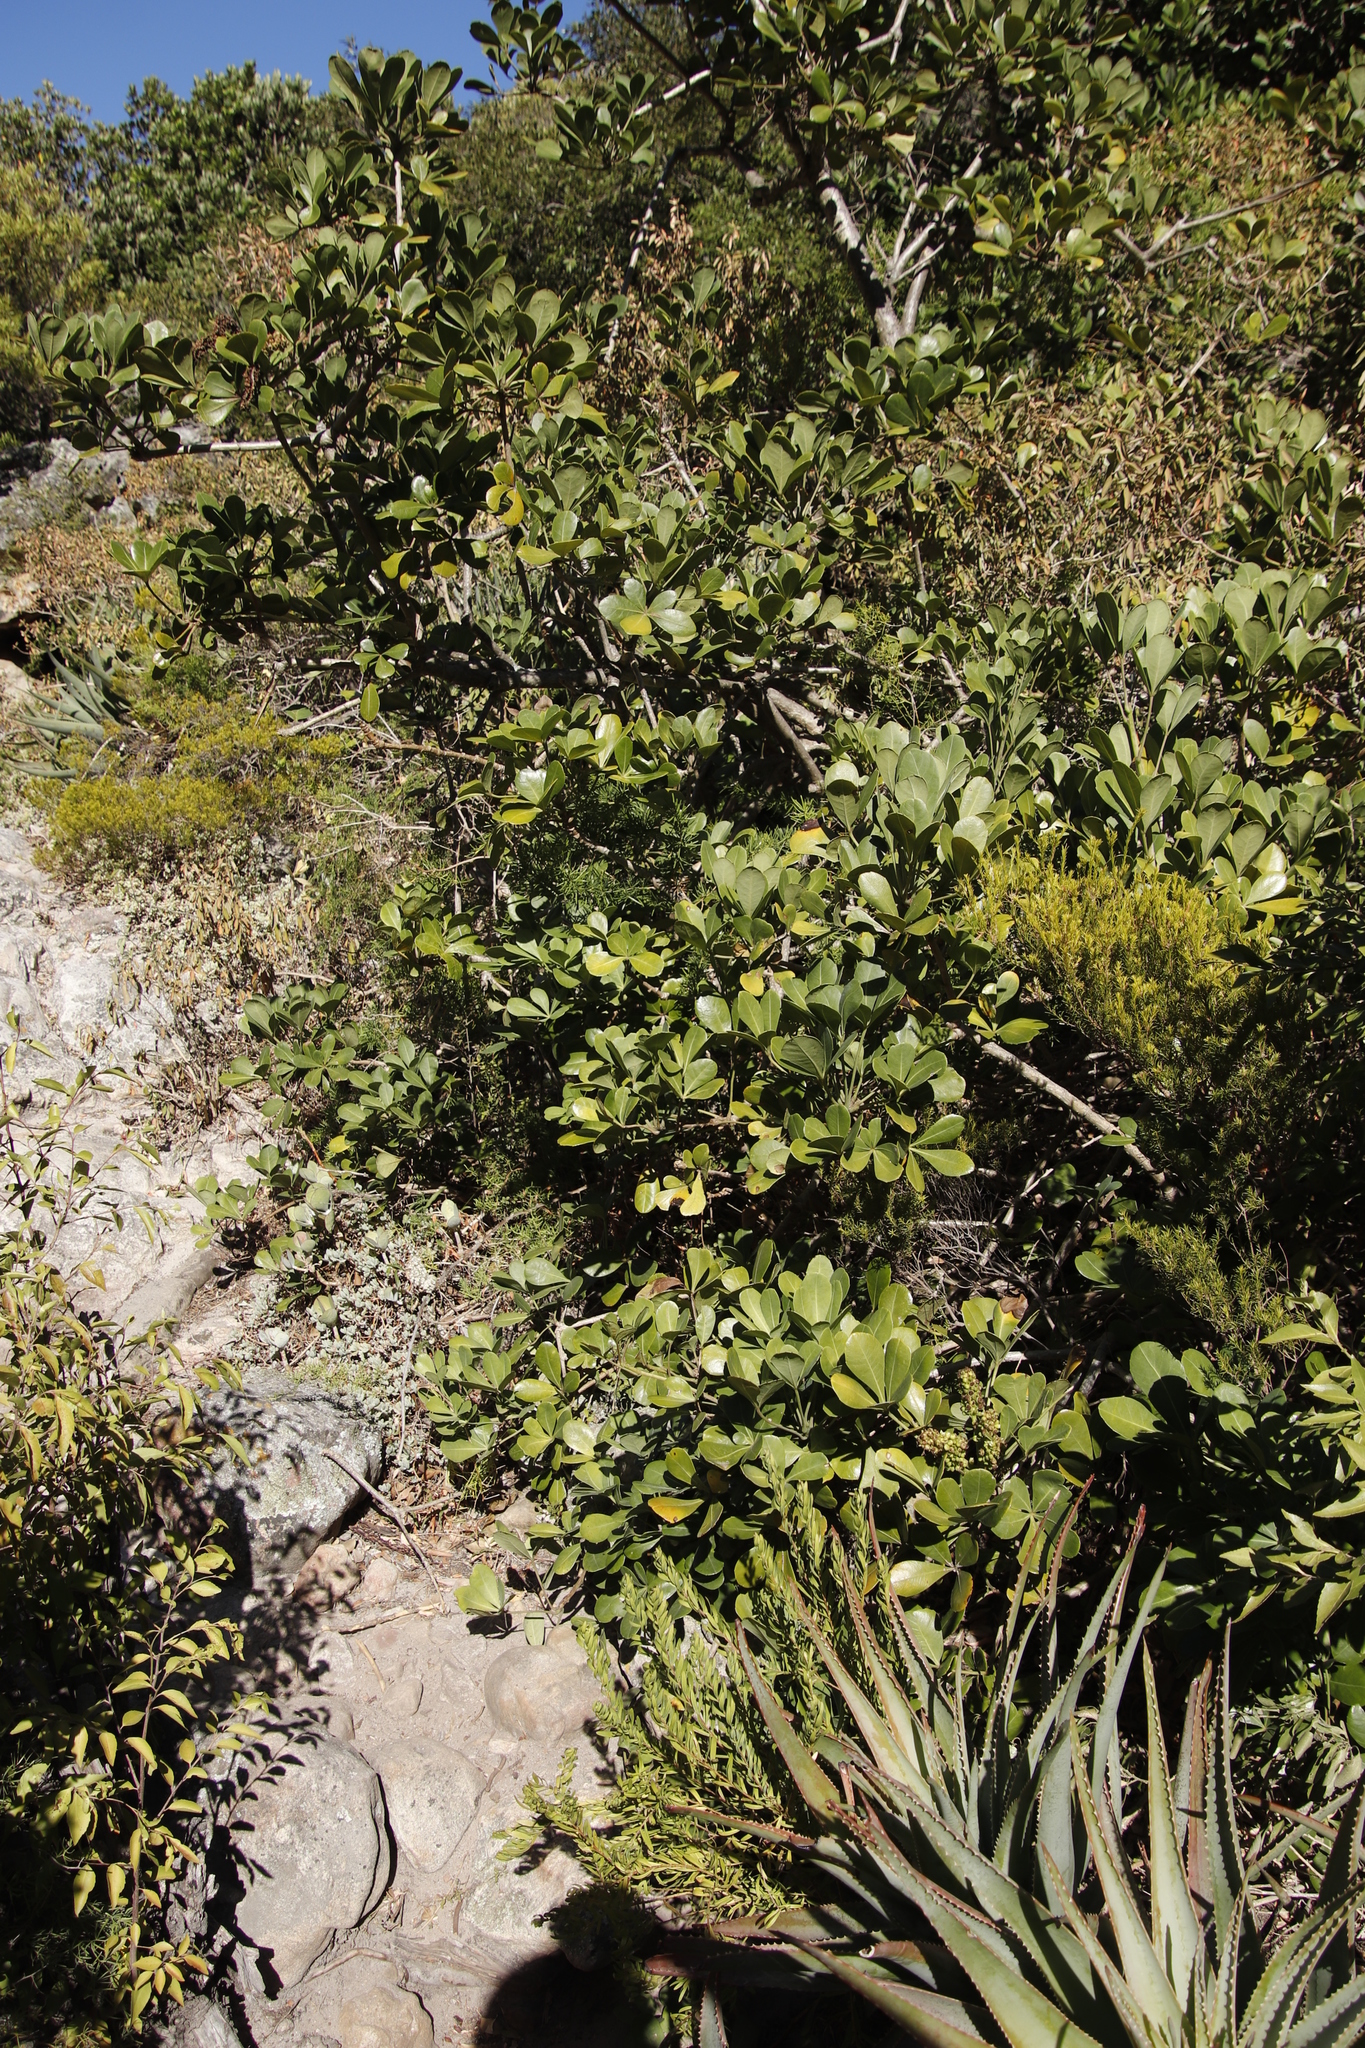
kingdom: Plantae
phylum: Tracheophyta
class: Magnoliopsida
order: Apiales
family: Araliaceae
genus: Cussonia
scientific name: Cussonia thyrsiflora
